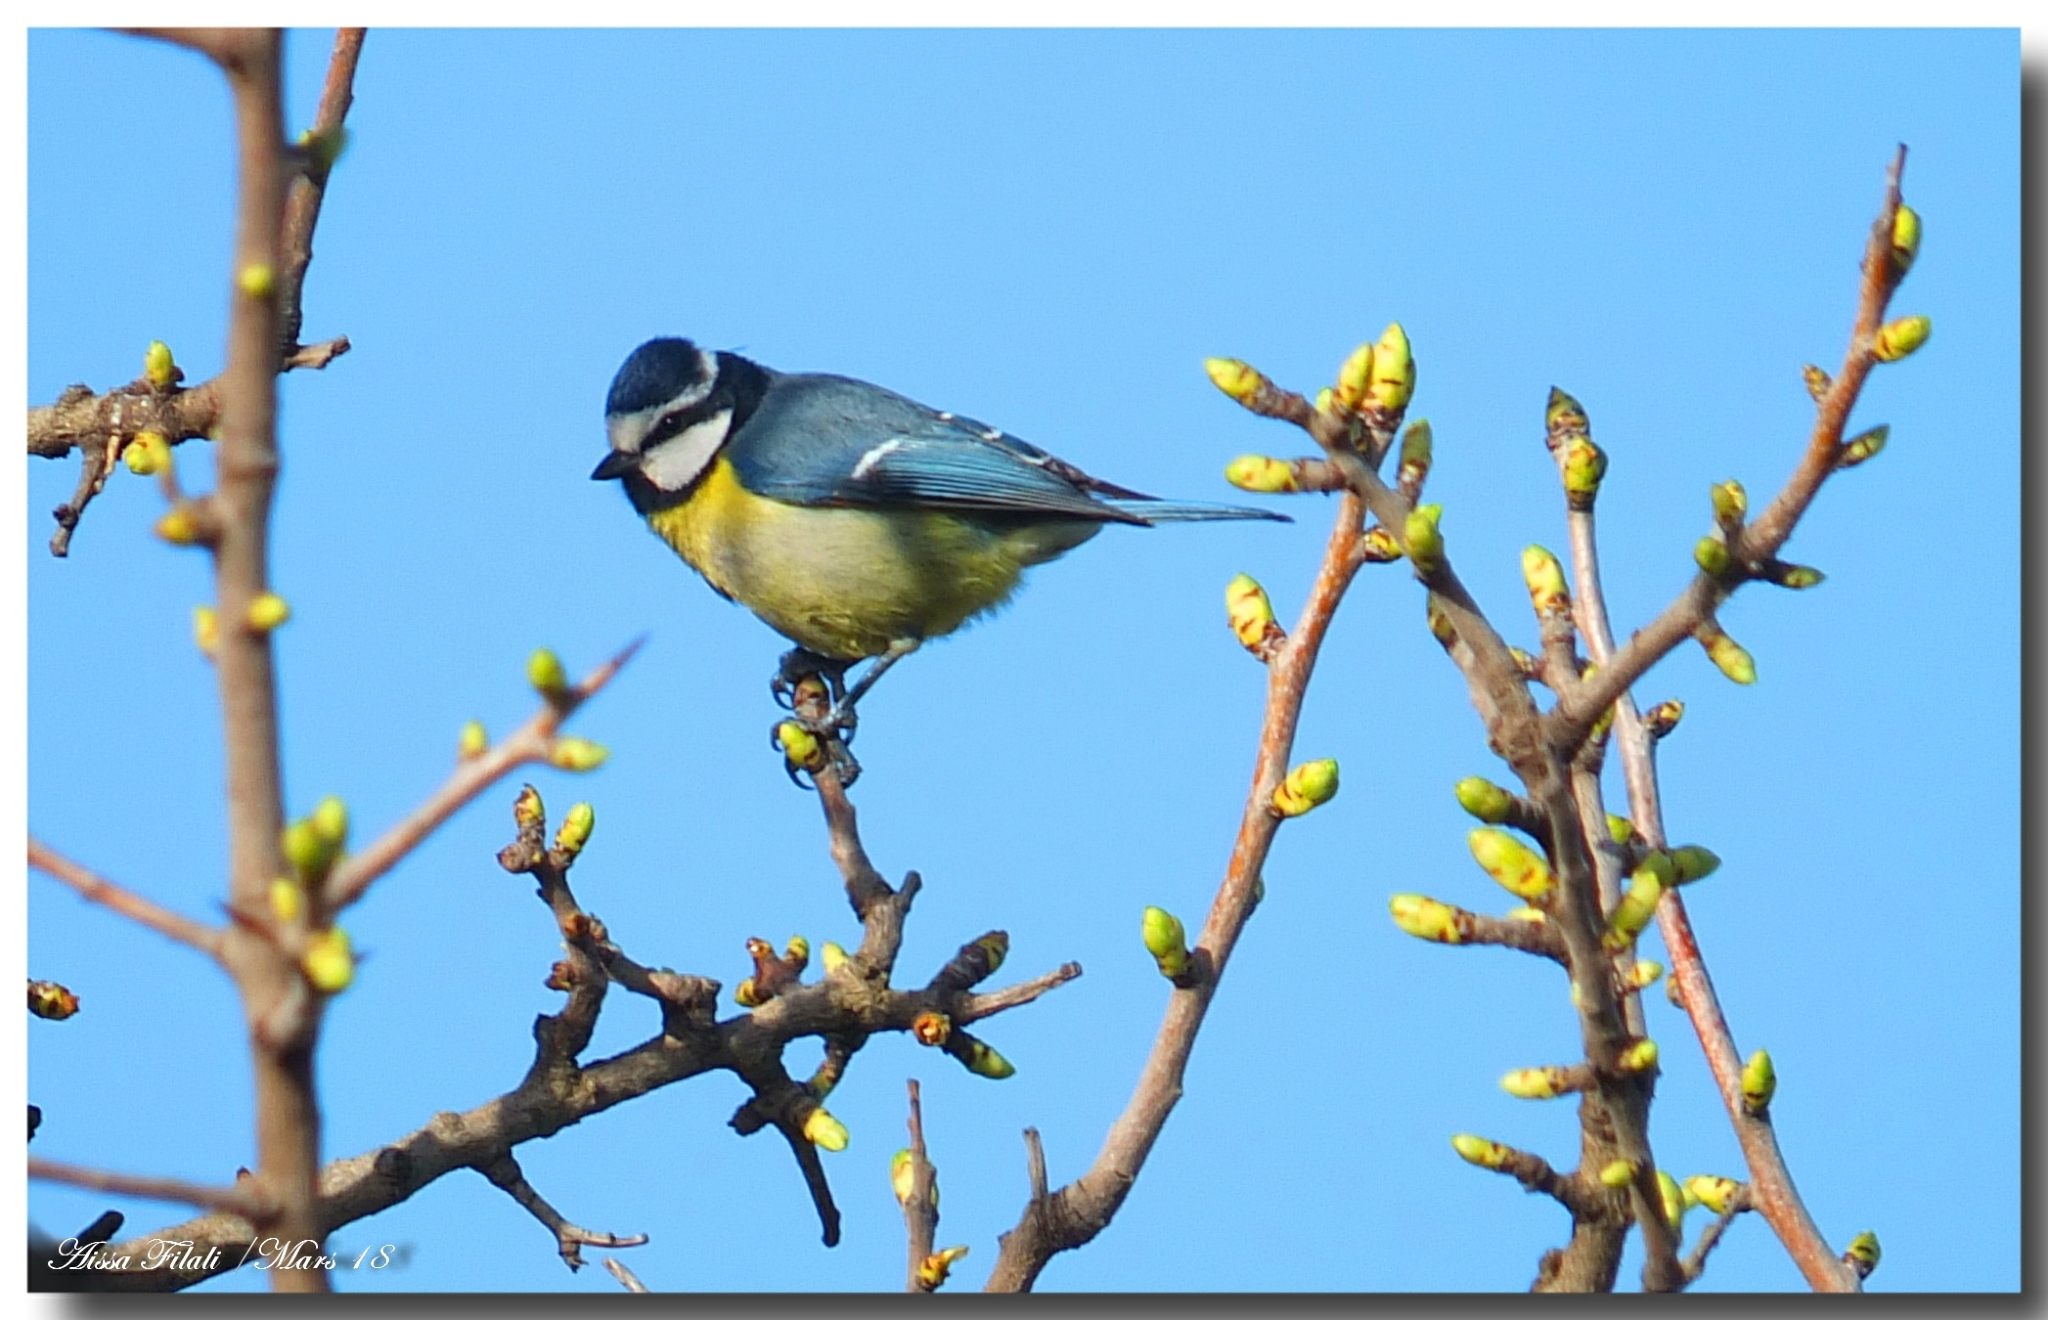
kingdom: Animalia
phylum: Chordata
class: Aves
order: Passeriformes
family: Paridae
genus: Cyanistes
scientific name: Cyanistes teneriffae
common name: African blue tit
